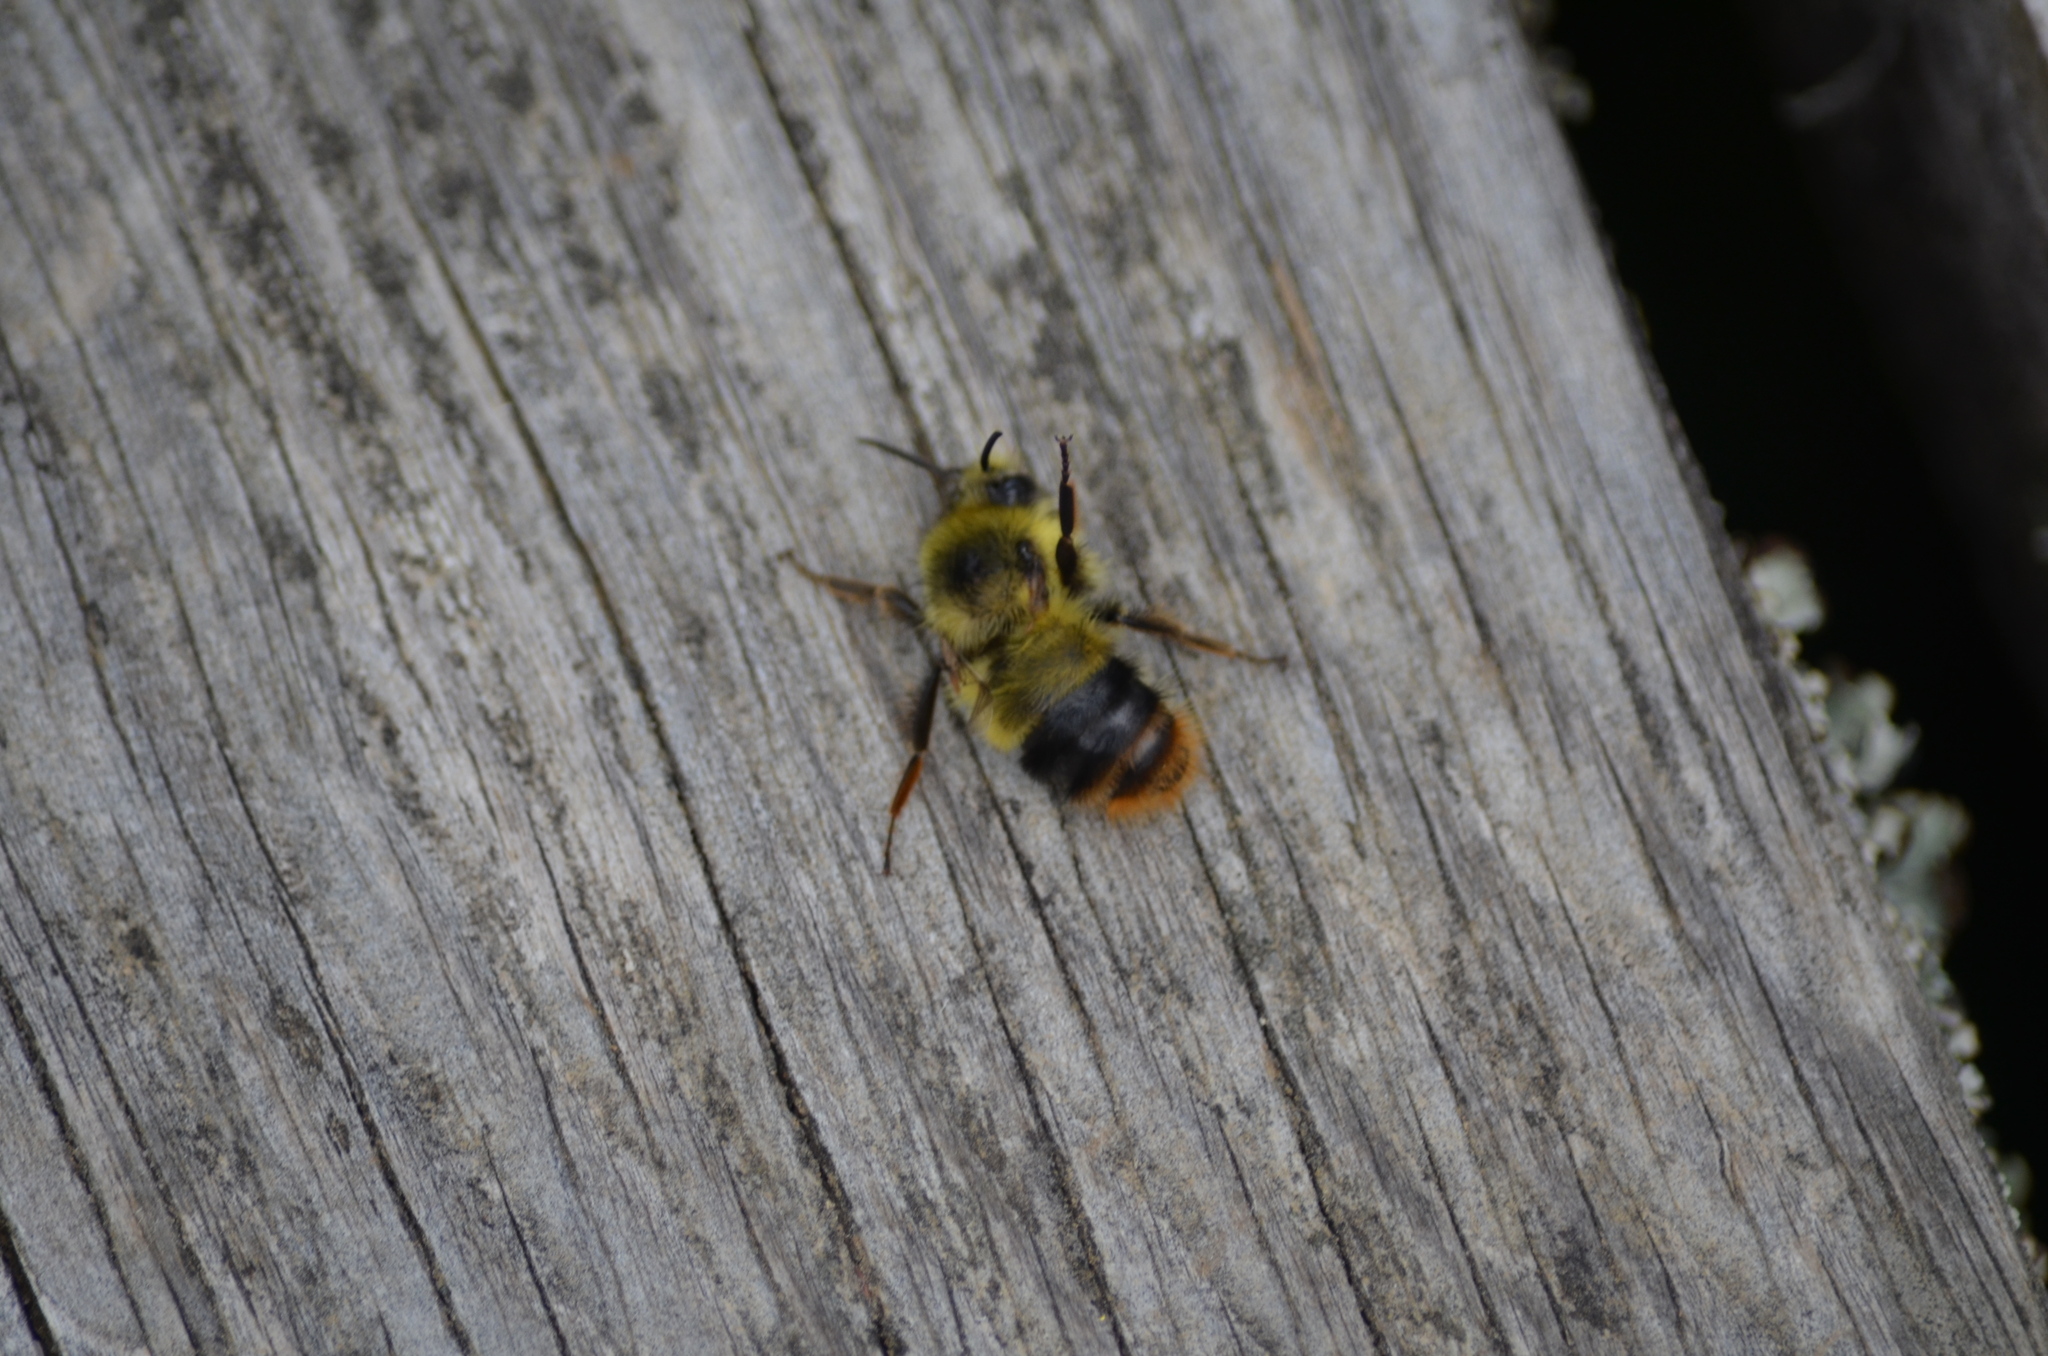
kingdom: Animalia
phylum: Arthropoda
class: Insecta
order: Hymenoptera
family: Apidae
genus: Bombus
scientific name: Bombus mixtus
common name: Fuzzy-horned bumble bee
